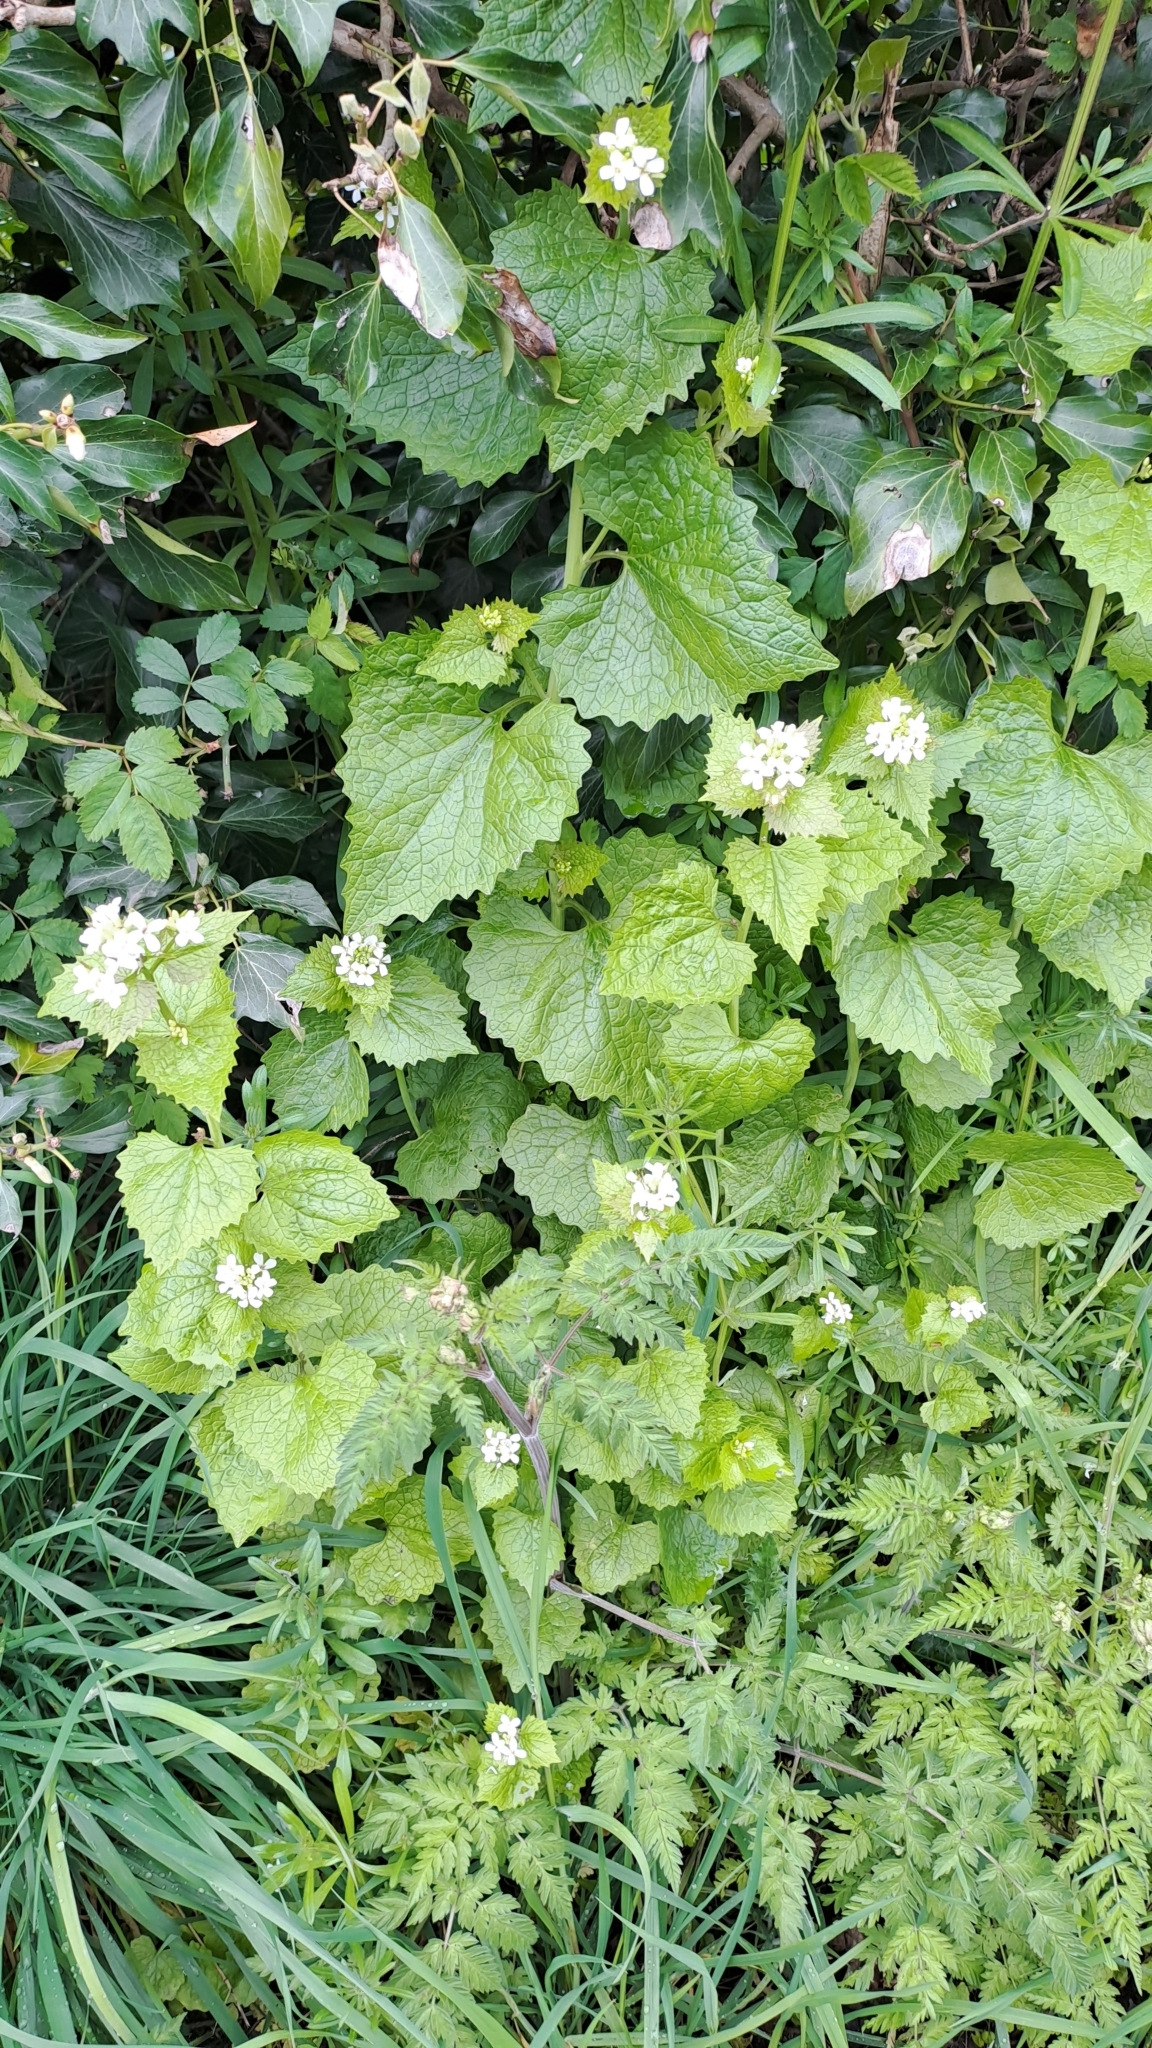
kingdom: Plantae
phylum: Tracheophyta
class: Magnoliopsida
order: Brassicales
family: Brassicaceae
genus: Alliaria
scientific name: Alliaria petiolata
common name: Garlic mustard
